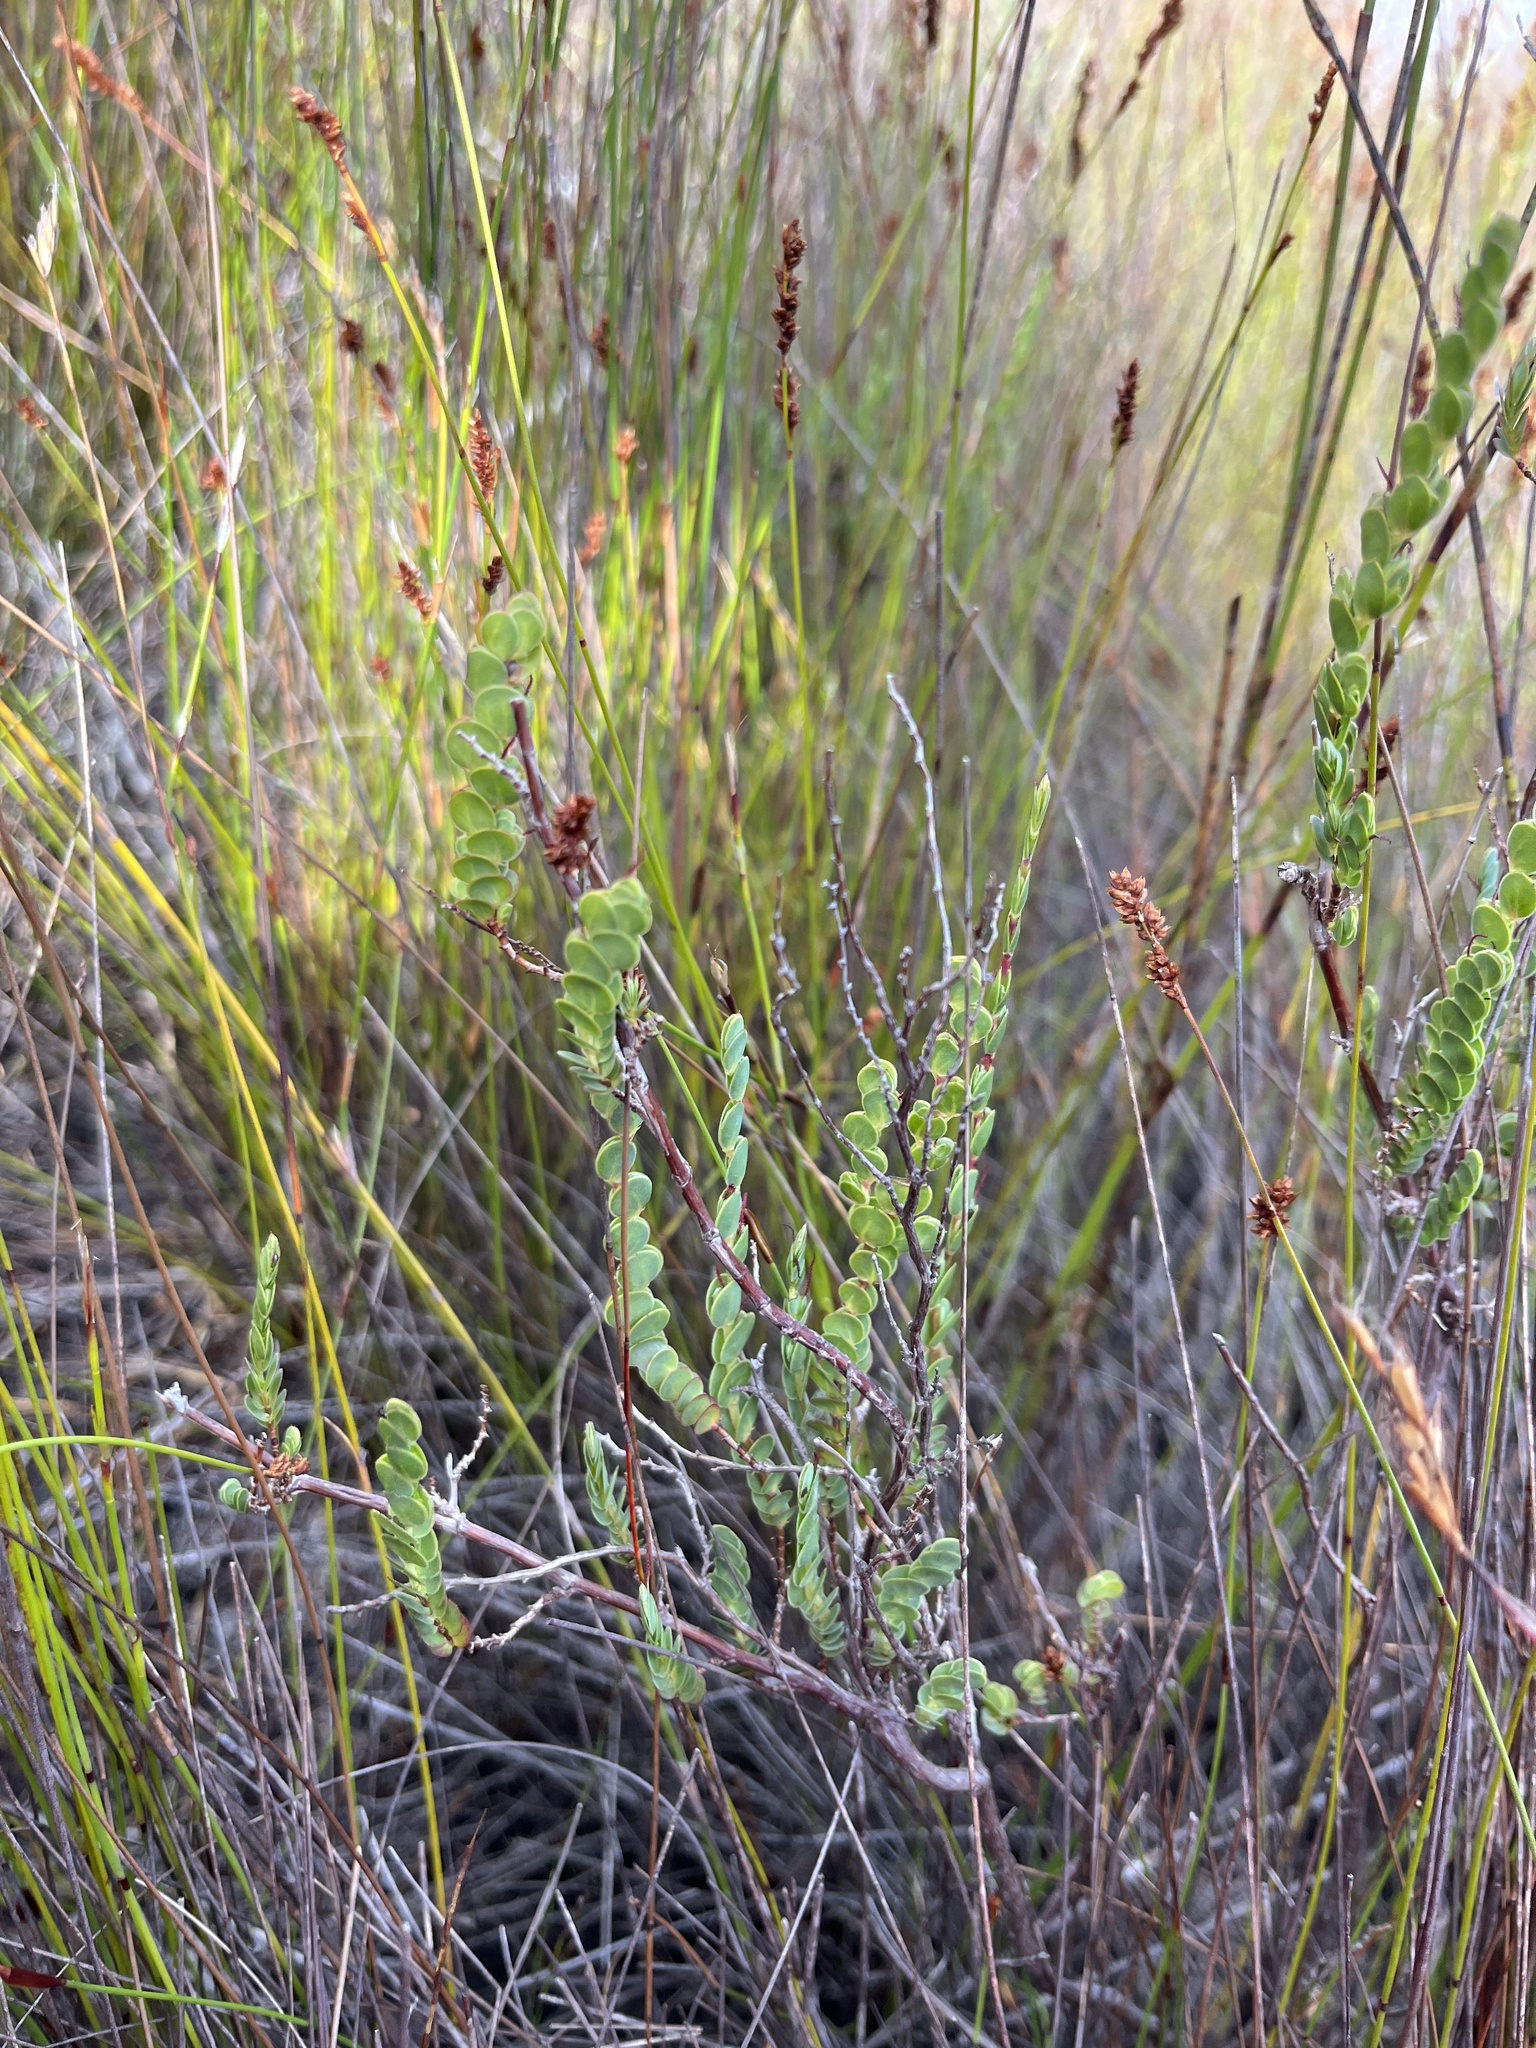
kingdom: Plantae
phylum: Tracheophyta
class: Magnoliopsida
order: Rosales
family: Rosaceae
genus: Cliffortia
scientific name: Cliffortia phyllanthoides
